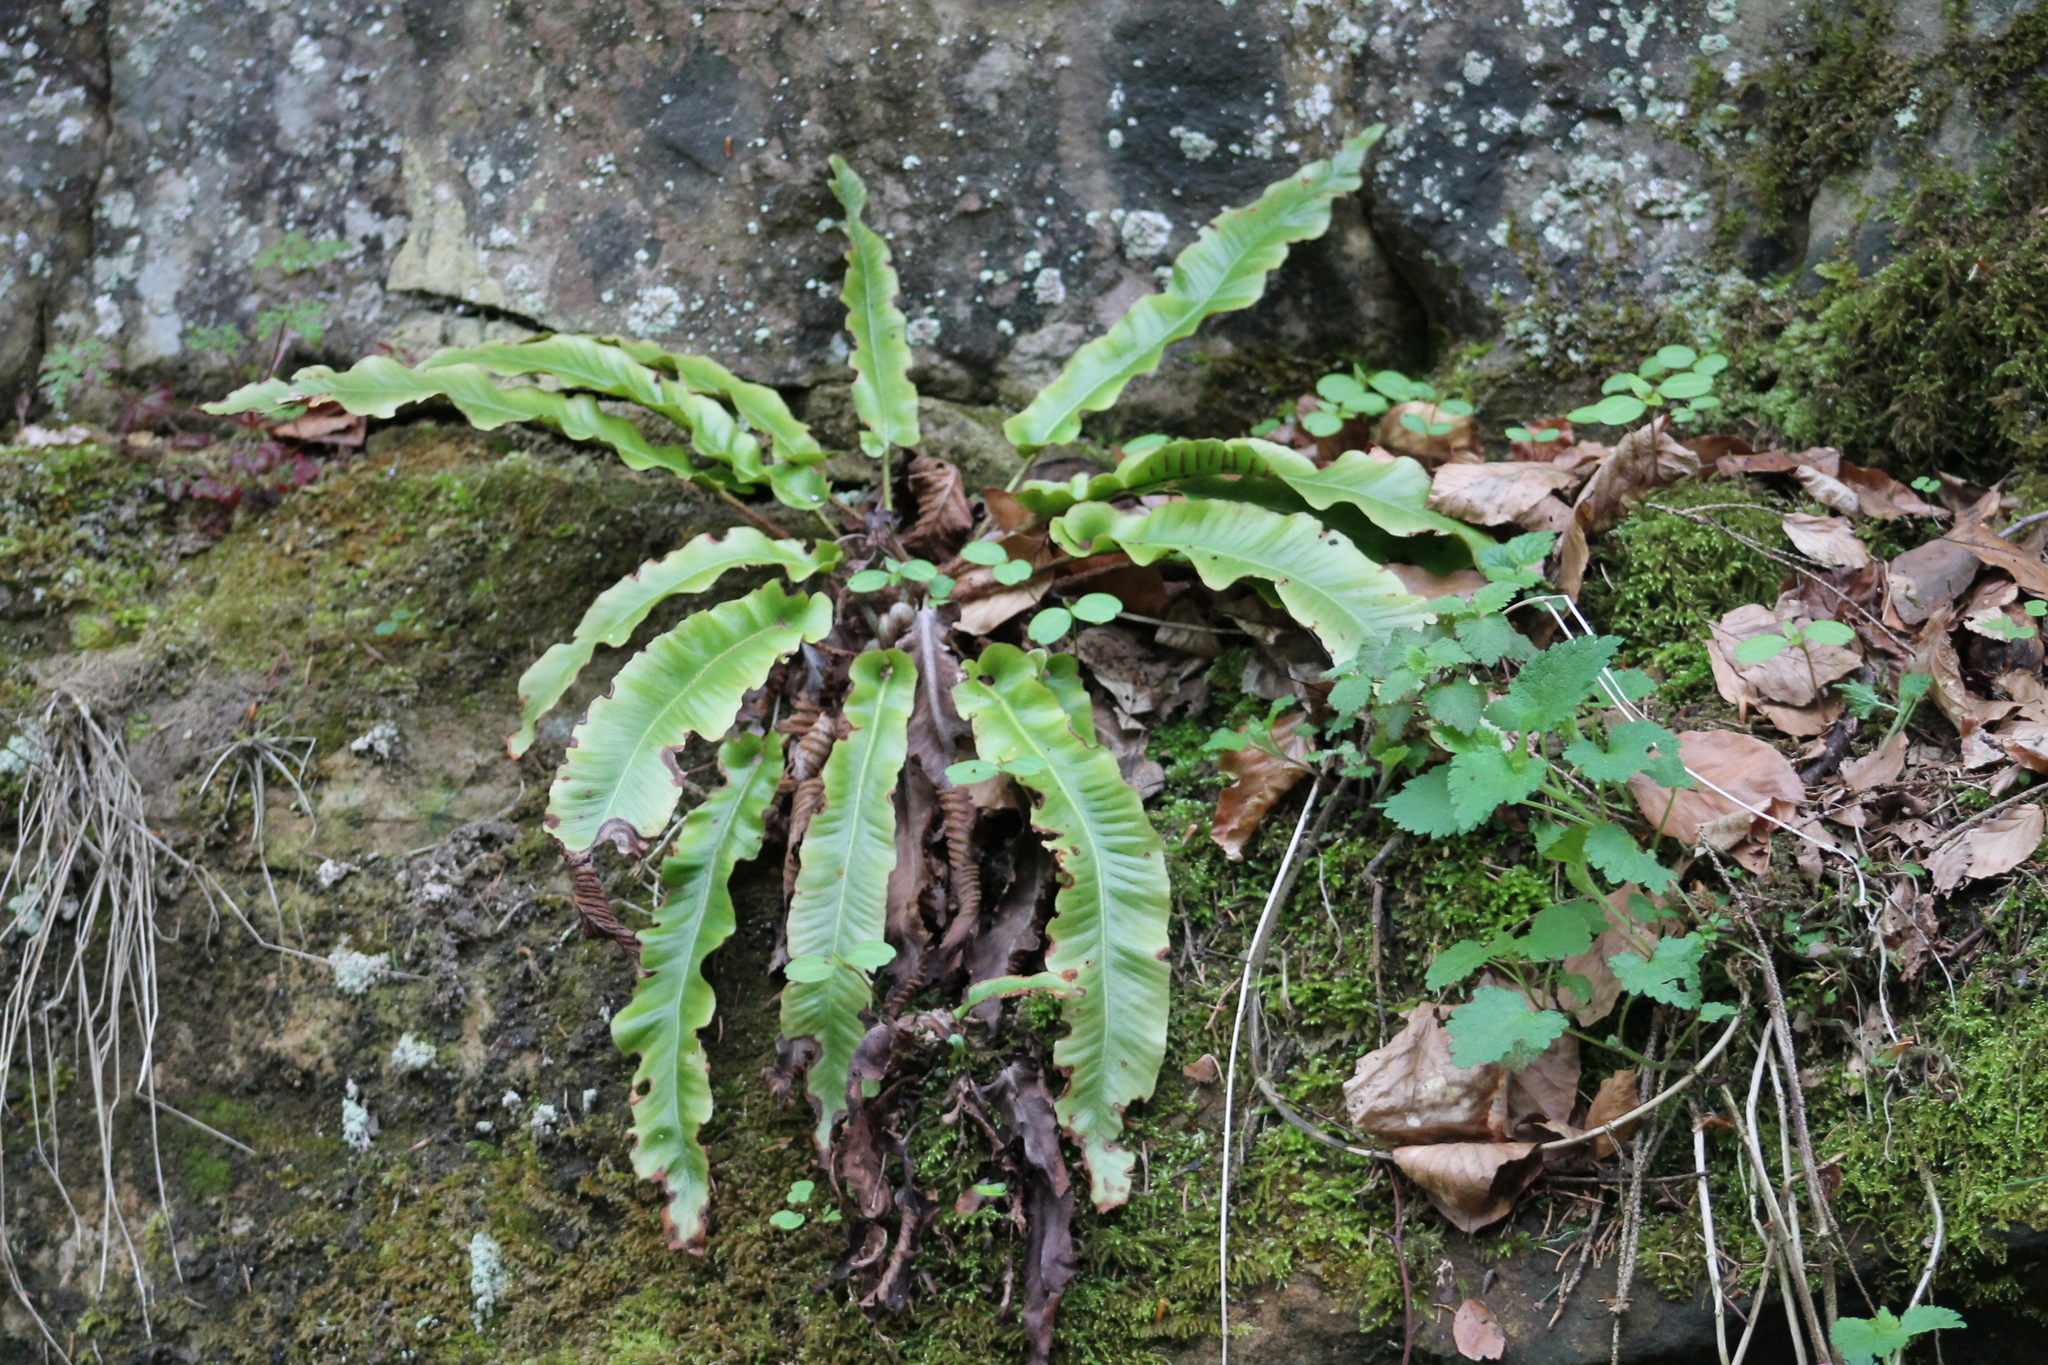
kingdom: Plantae
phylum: Tracheophyta
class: Polypodiopsida
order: Polypodiales
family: Aspleniaceae
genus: Asplenium
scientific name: Asplenium scolopendrium
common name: Hart's-tongue fern
